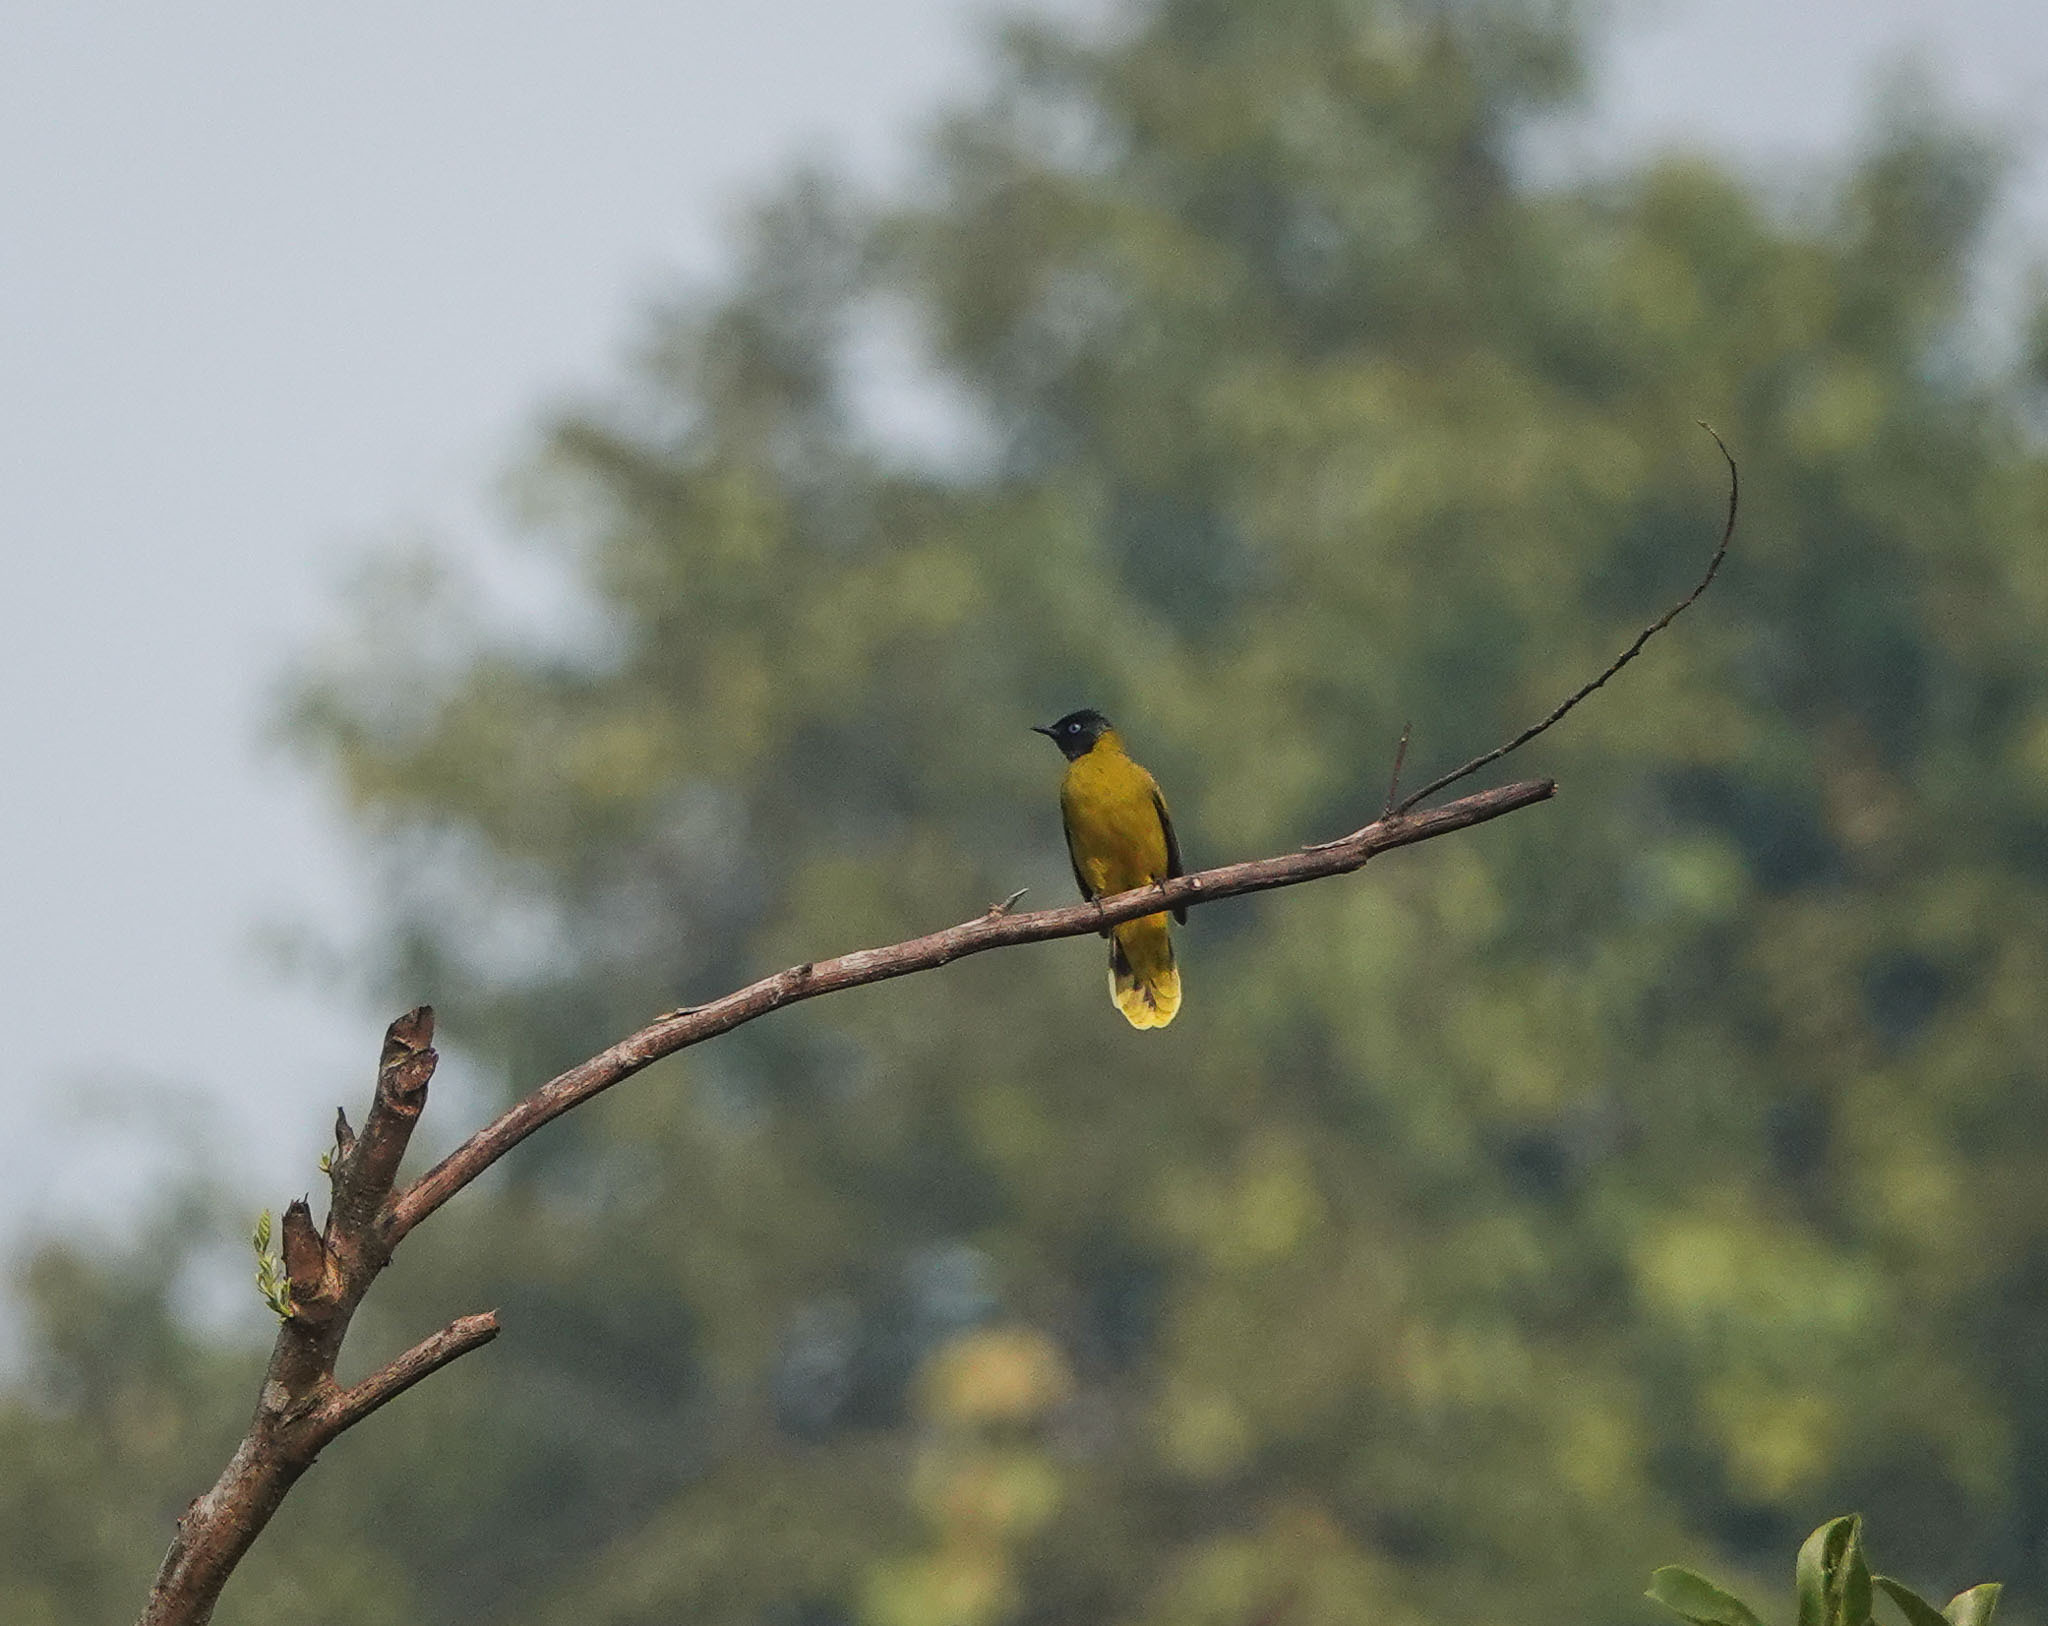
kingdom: Animalia
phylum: Chordata
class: Aves
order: Passeriformes
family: Pycnonotidae
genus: Microtarsus
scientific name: Microtarsus
